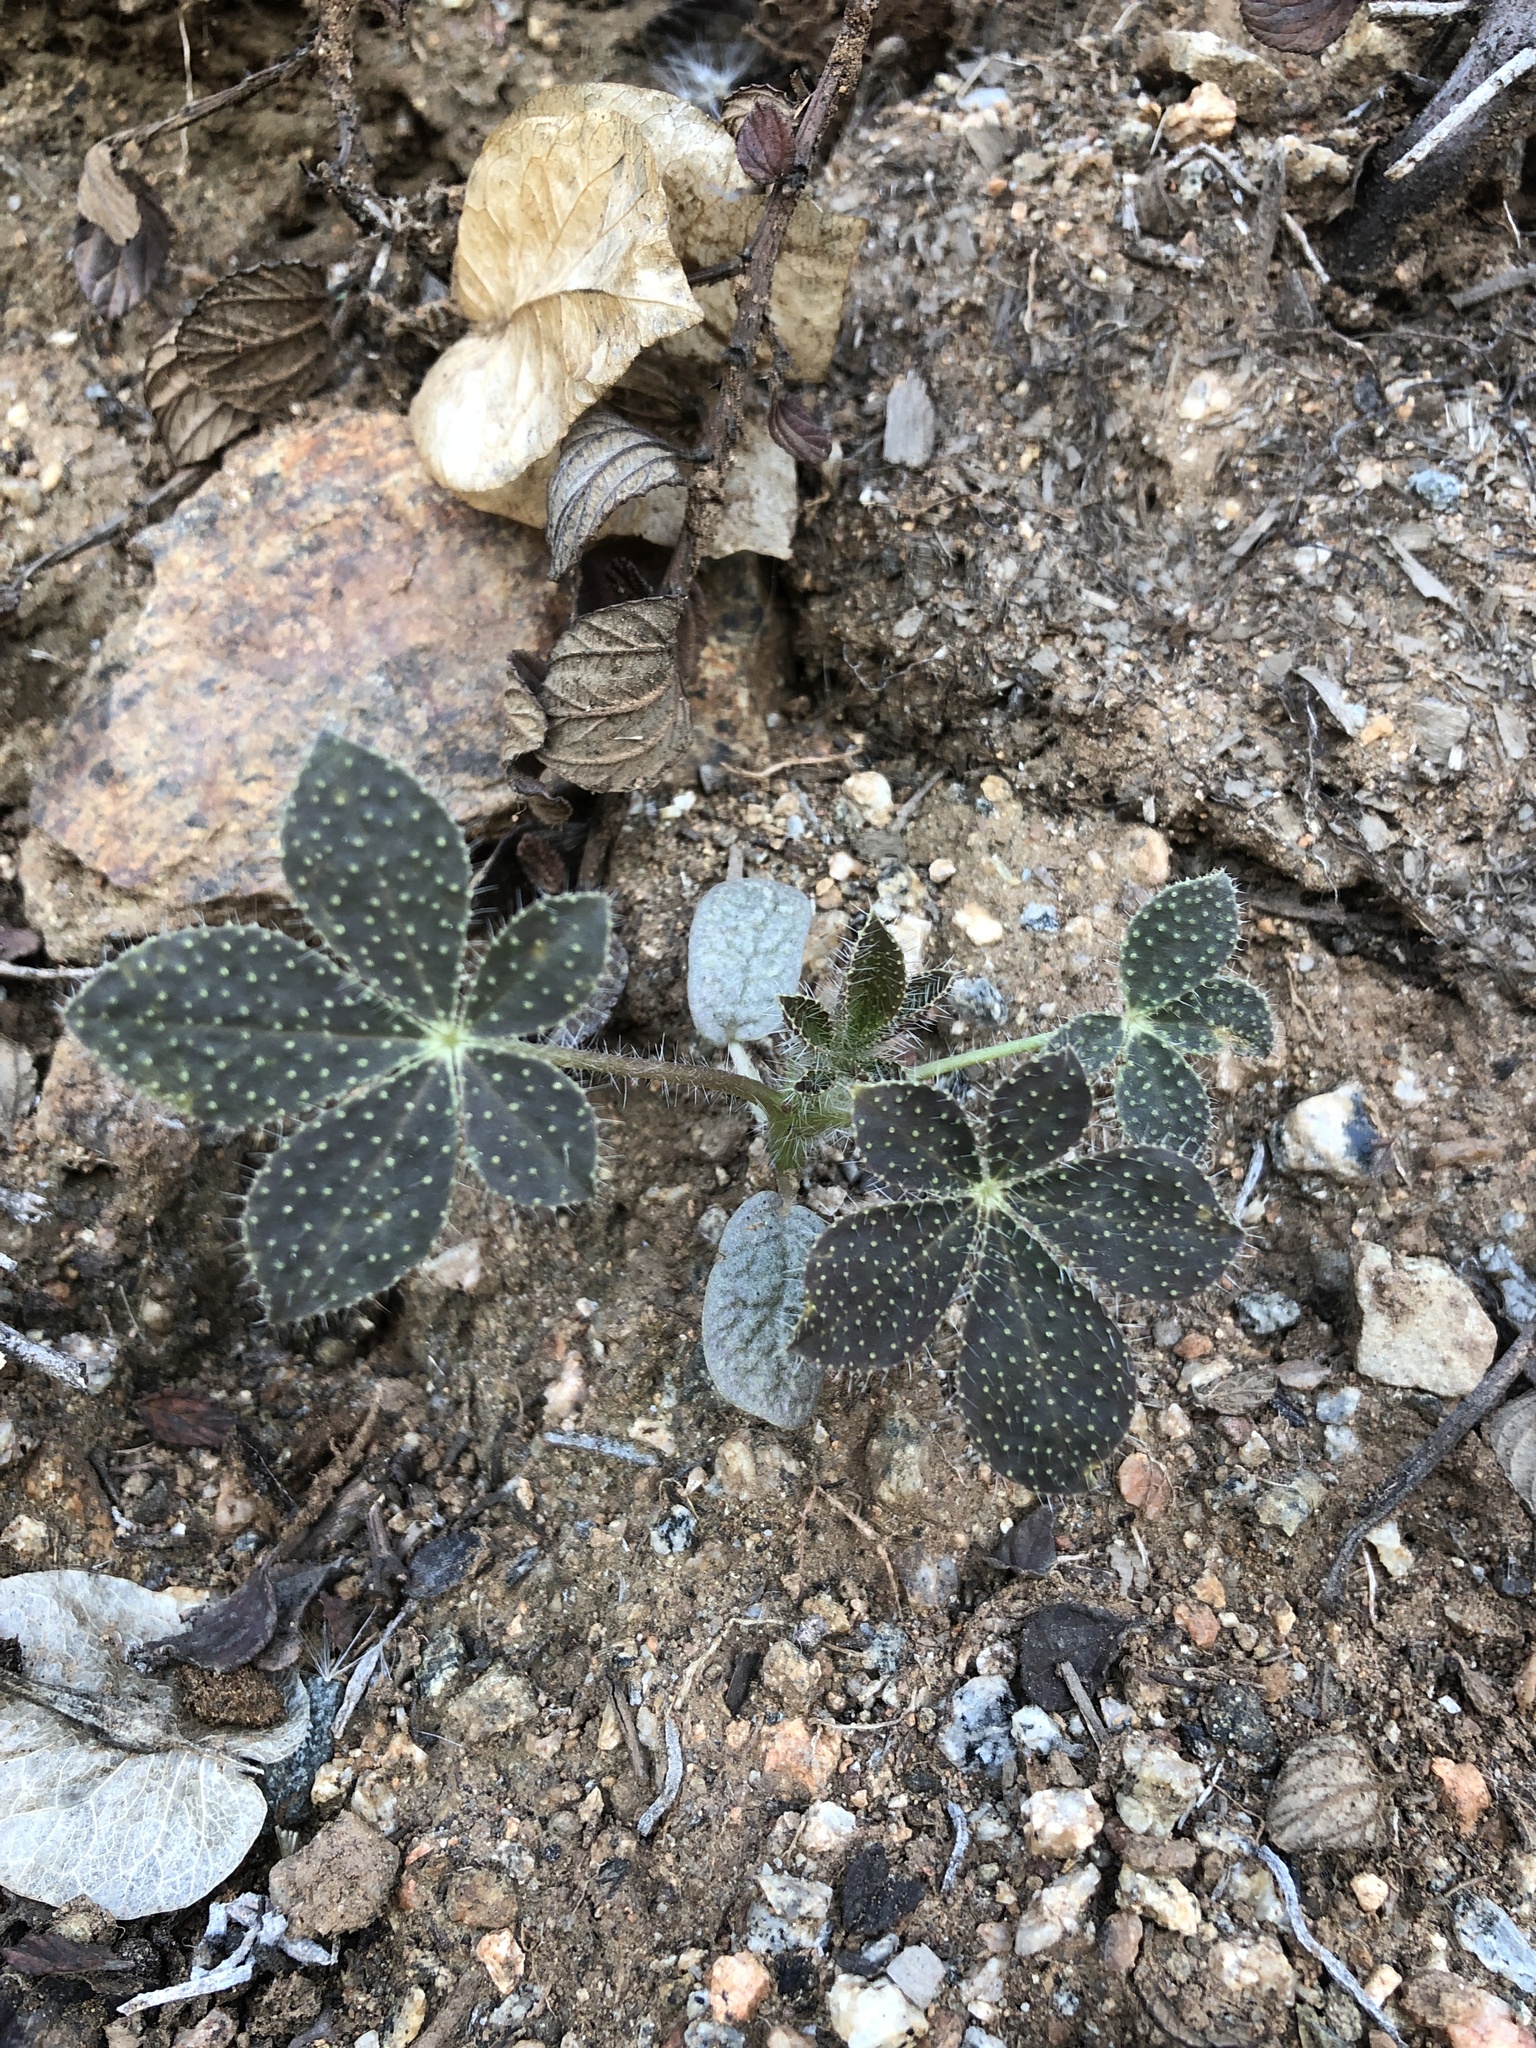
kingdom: Plantae
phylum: Tracheophyta
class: Magnoliopsida
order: Fabales
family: Fabaceae
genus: Lupinus
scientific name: Lupinus hirsutissimus
